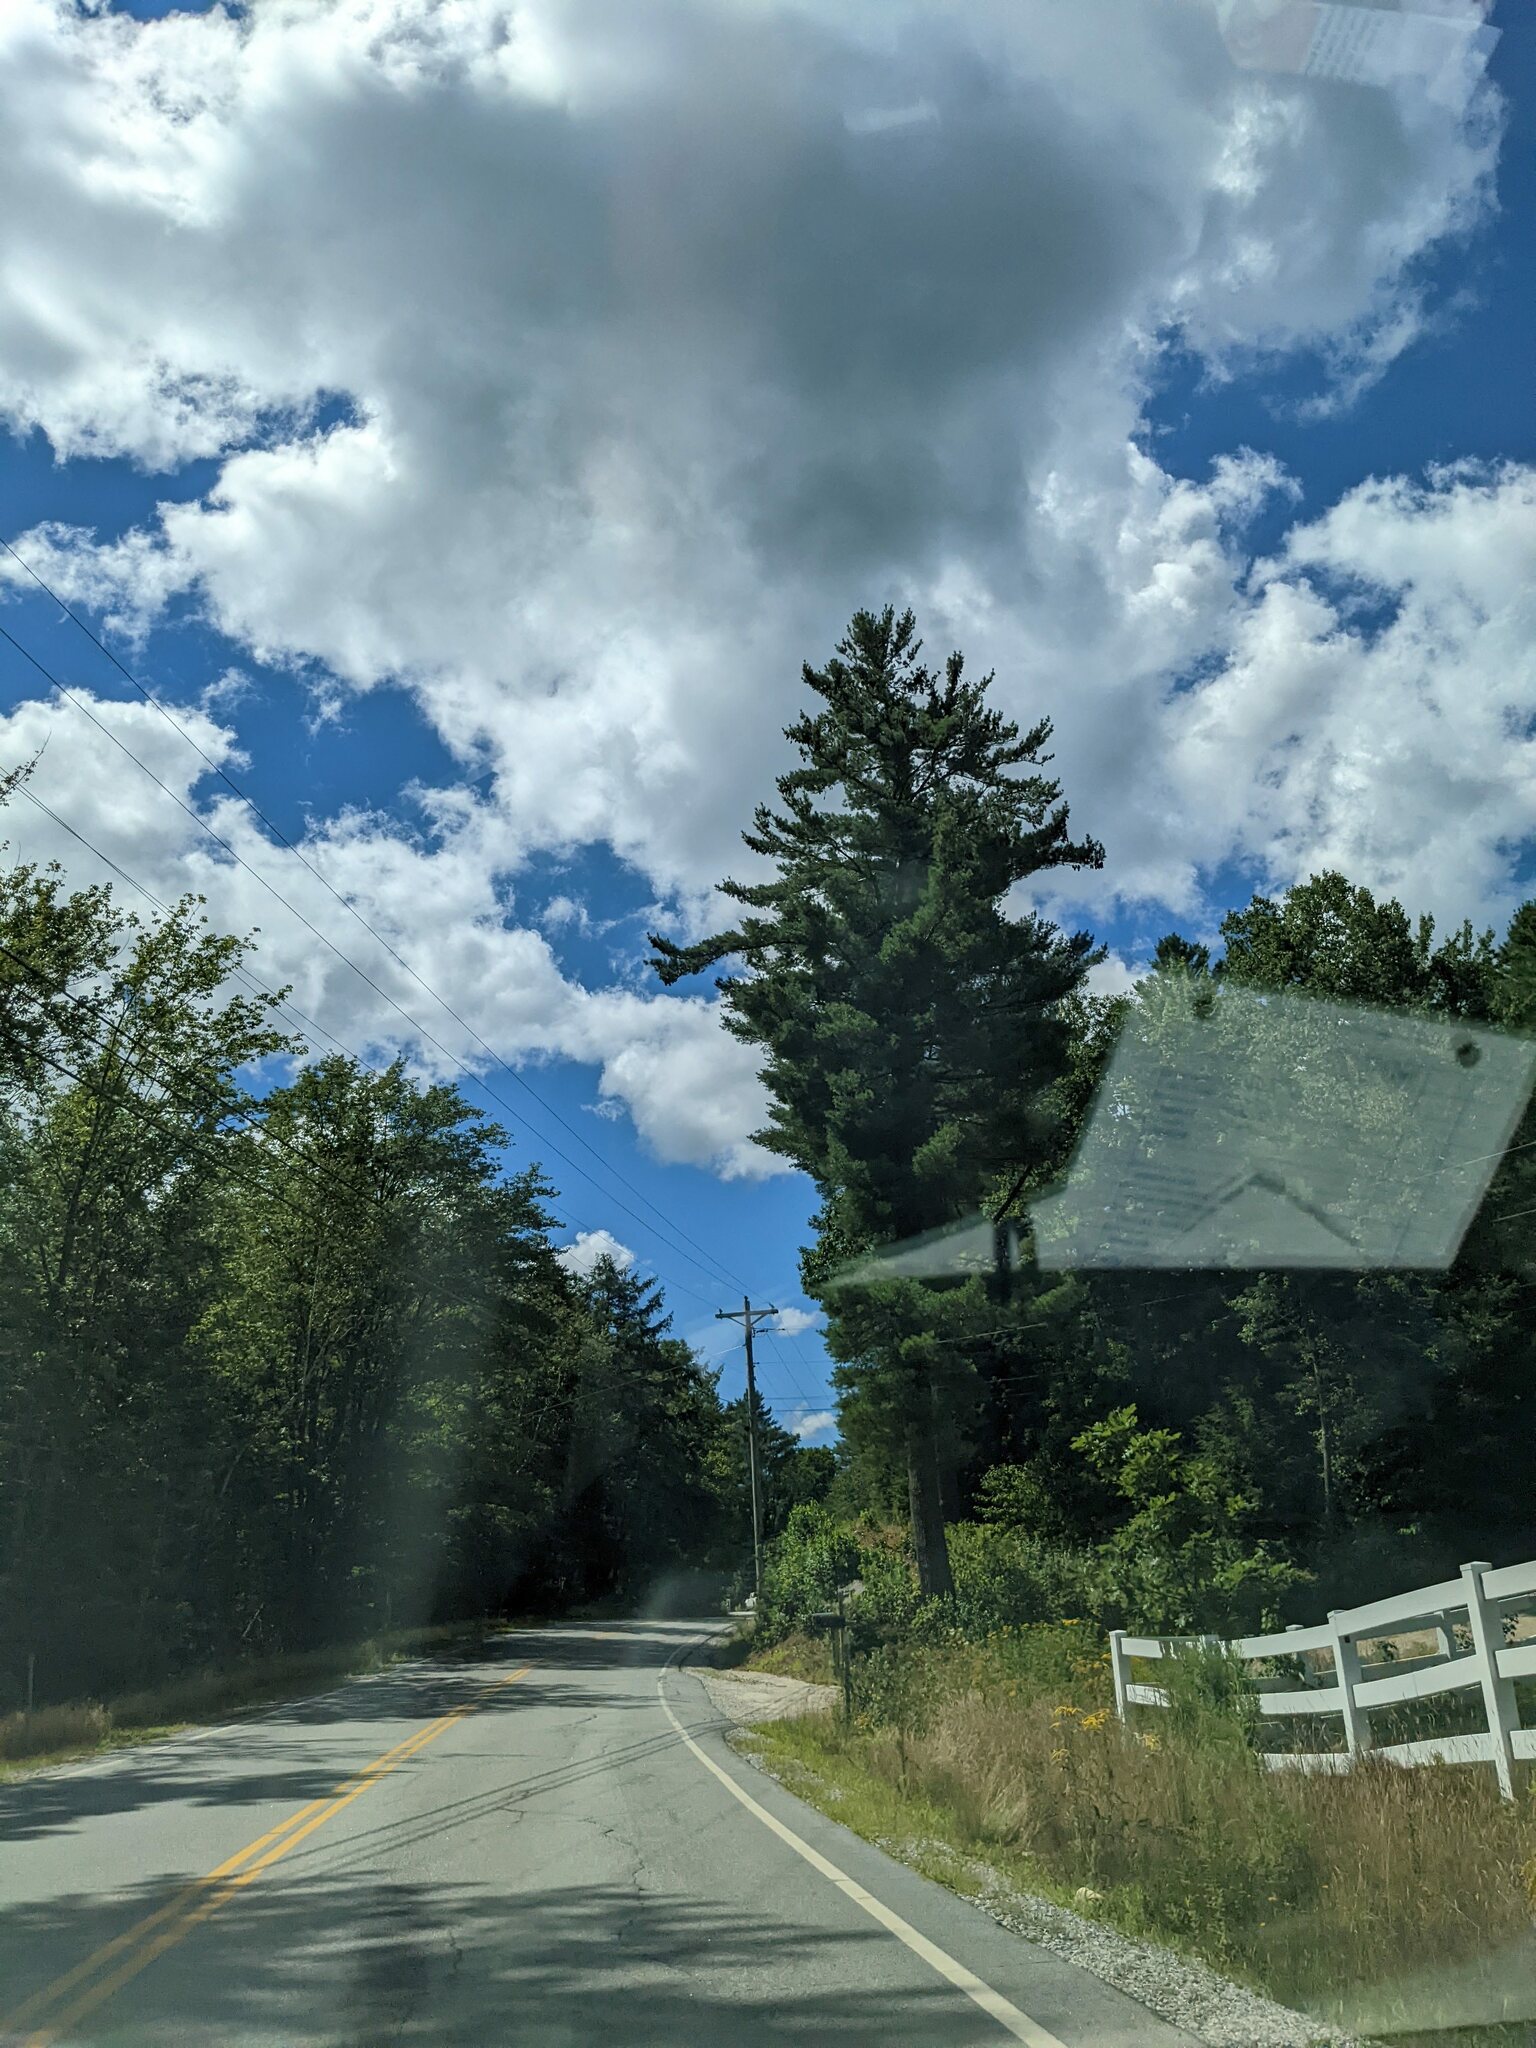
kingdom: Plantae
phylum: Tracheophyta
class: Pinopsida
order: Pinales
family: Pinaceae
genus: Pinus
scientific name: Pinus strobus
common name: Weymouth pine
